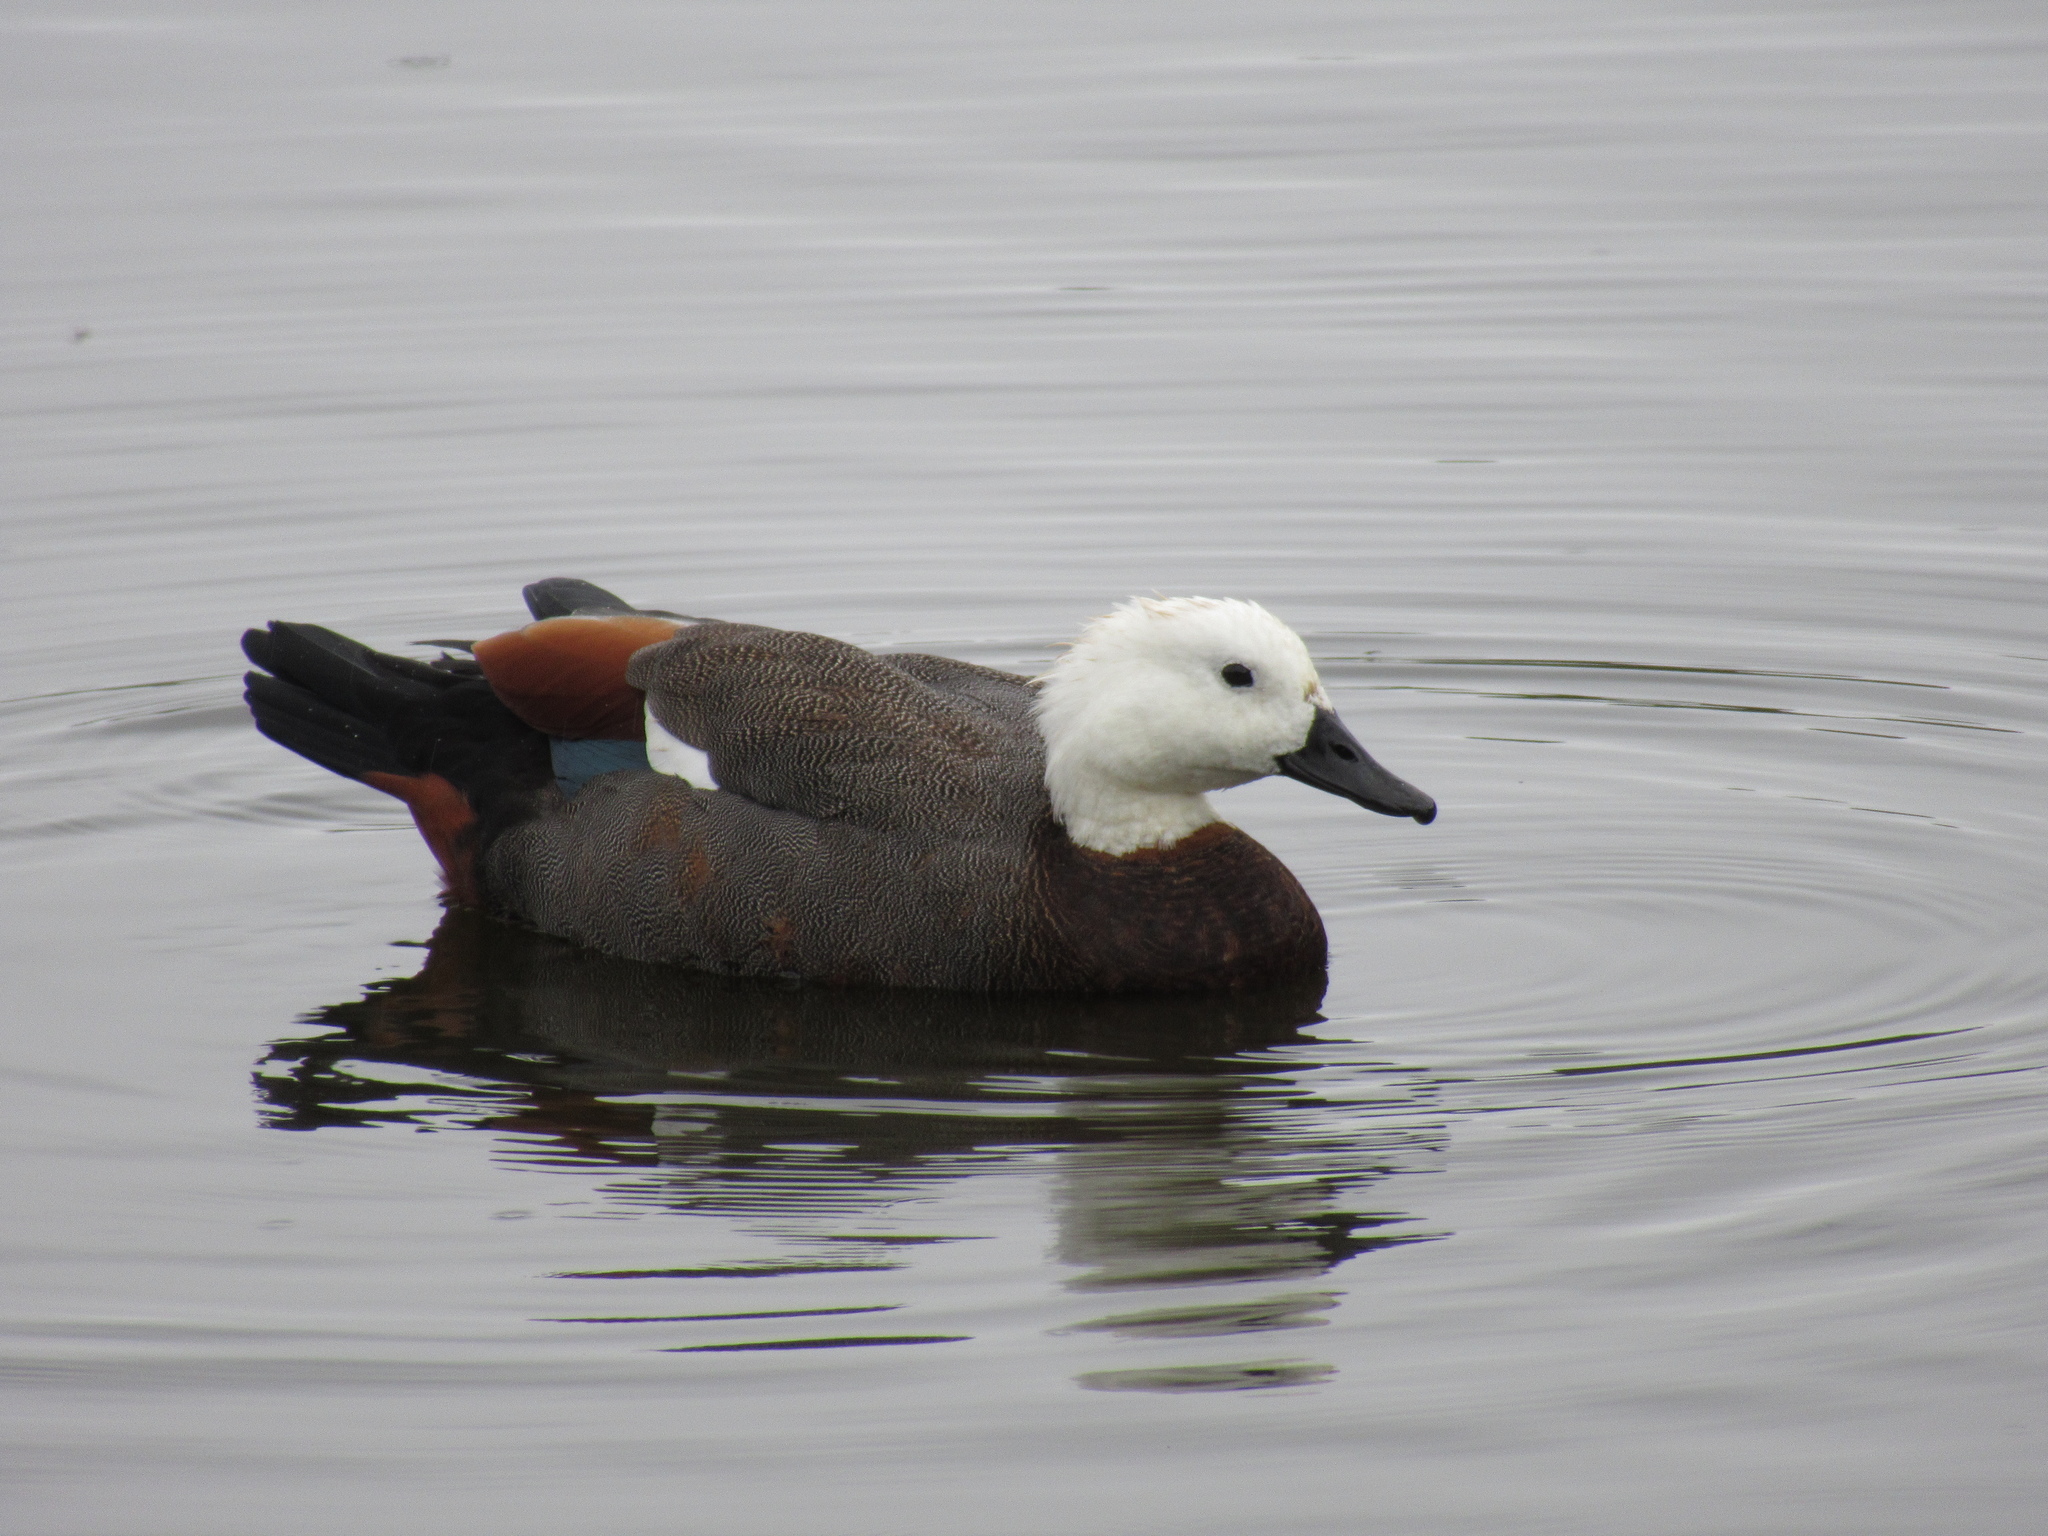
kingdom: Animalia
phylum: Chordata
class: Aves
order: Anseriformes
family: Anatidae
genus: Tadorna
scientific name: Tadorna variegata
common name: Paradise shelduck
